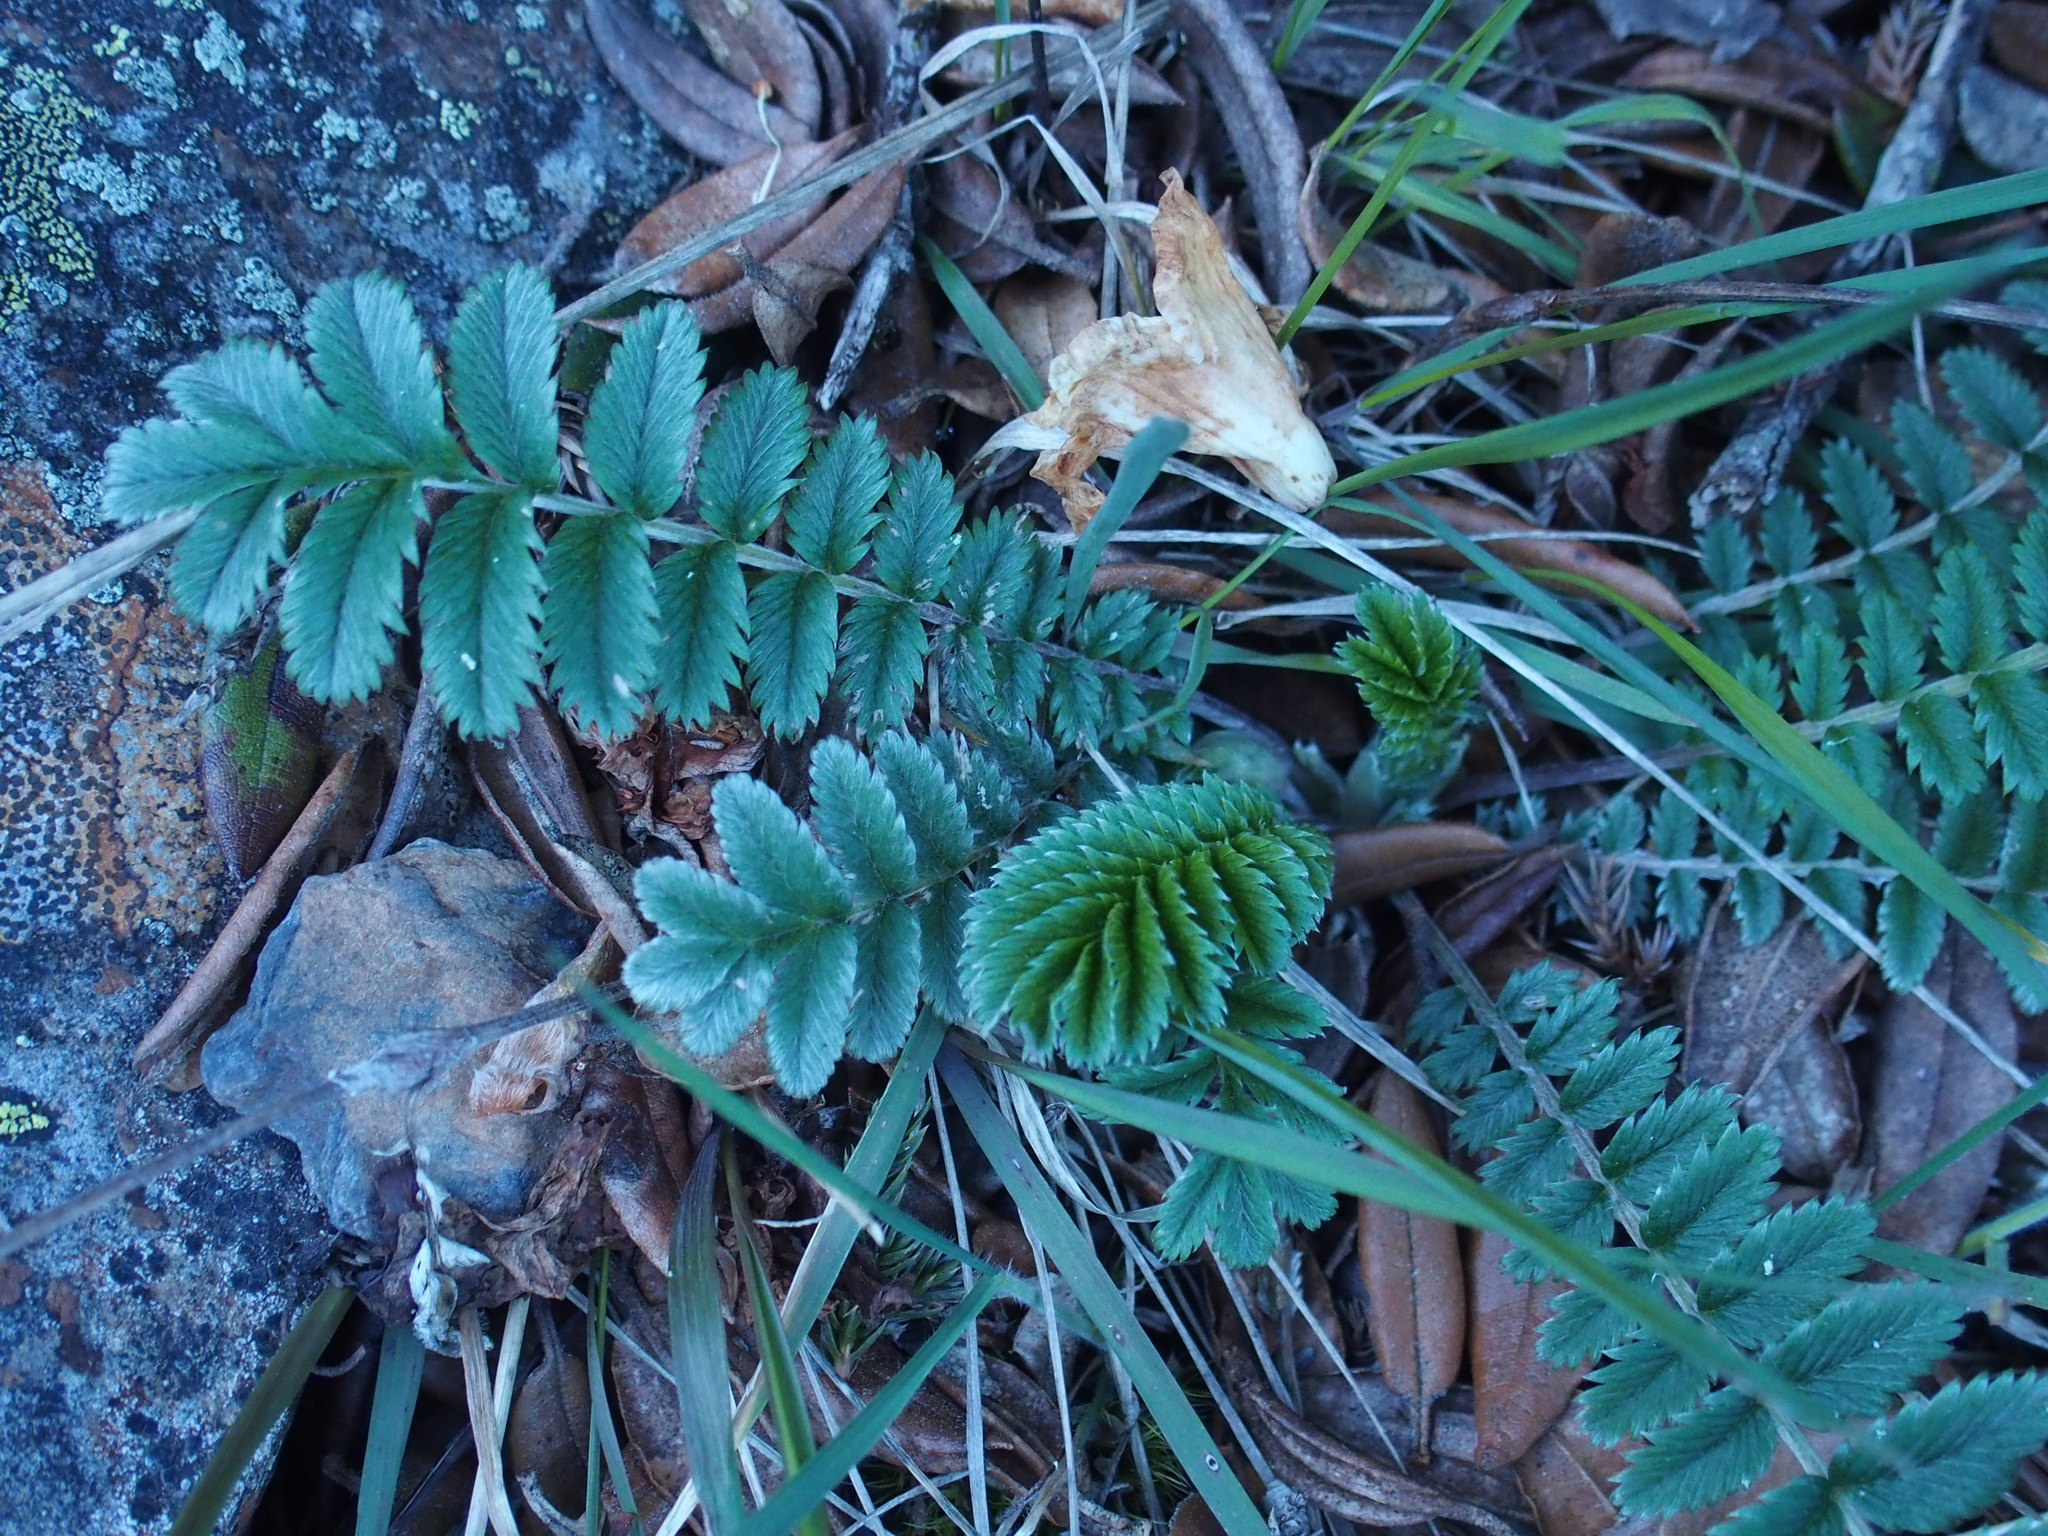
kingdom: Plantae
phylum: Tracheophyta
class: Magnoliopsida
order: Rosales
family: Rosaceae
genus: Argentina
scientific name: Argentina leuconota
